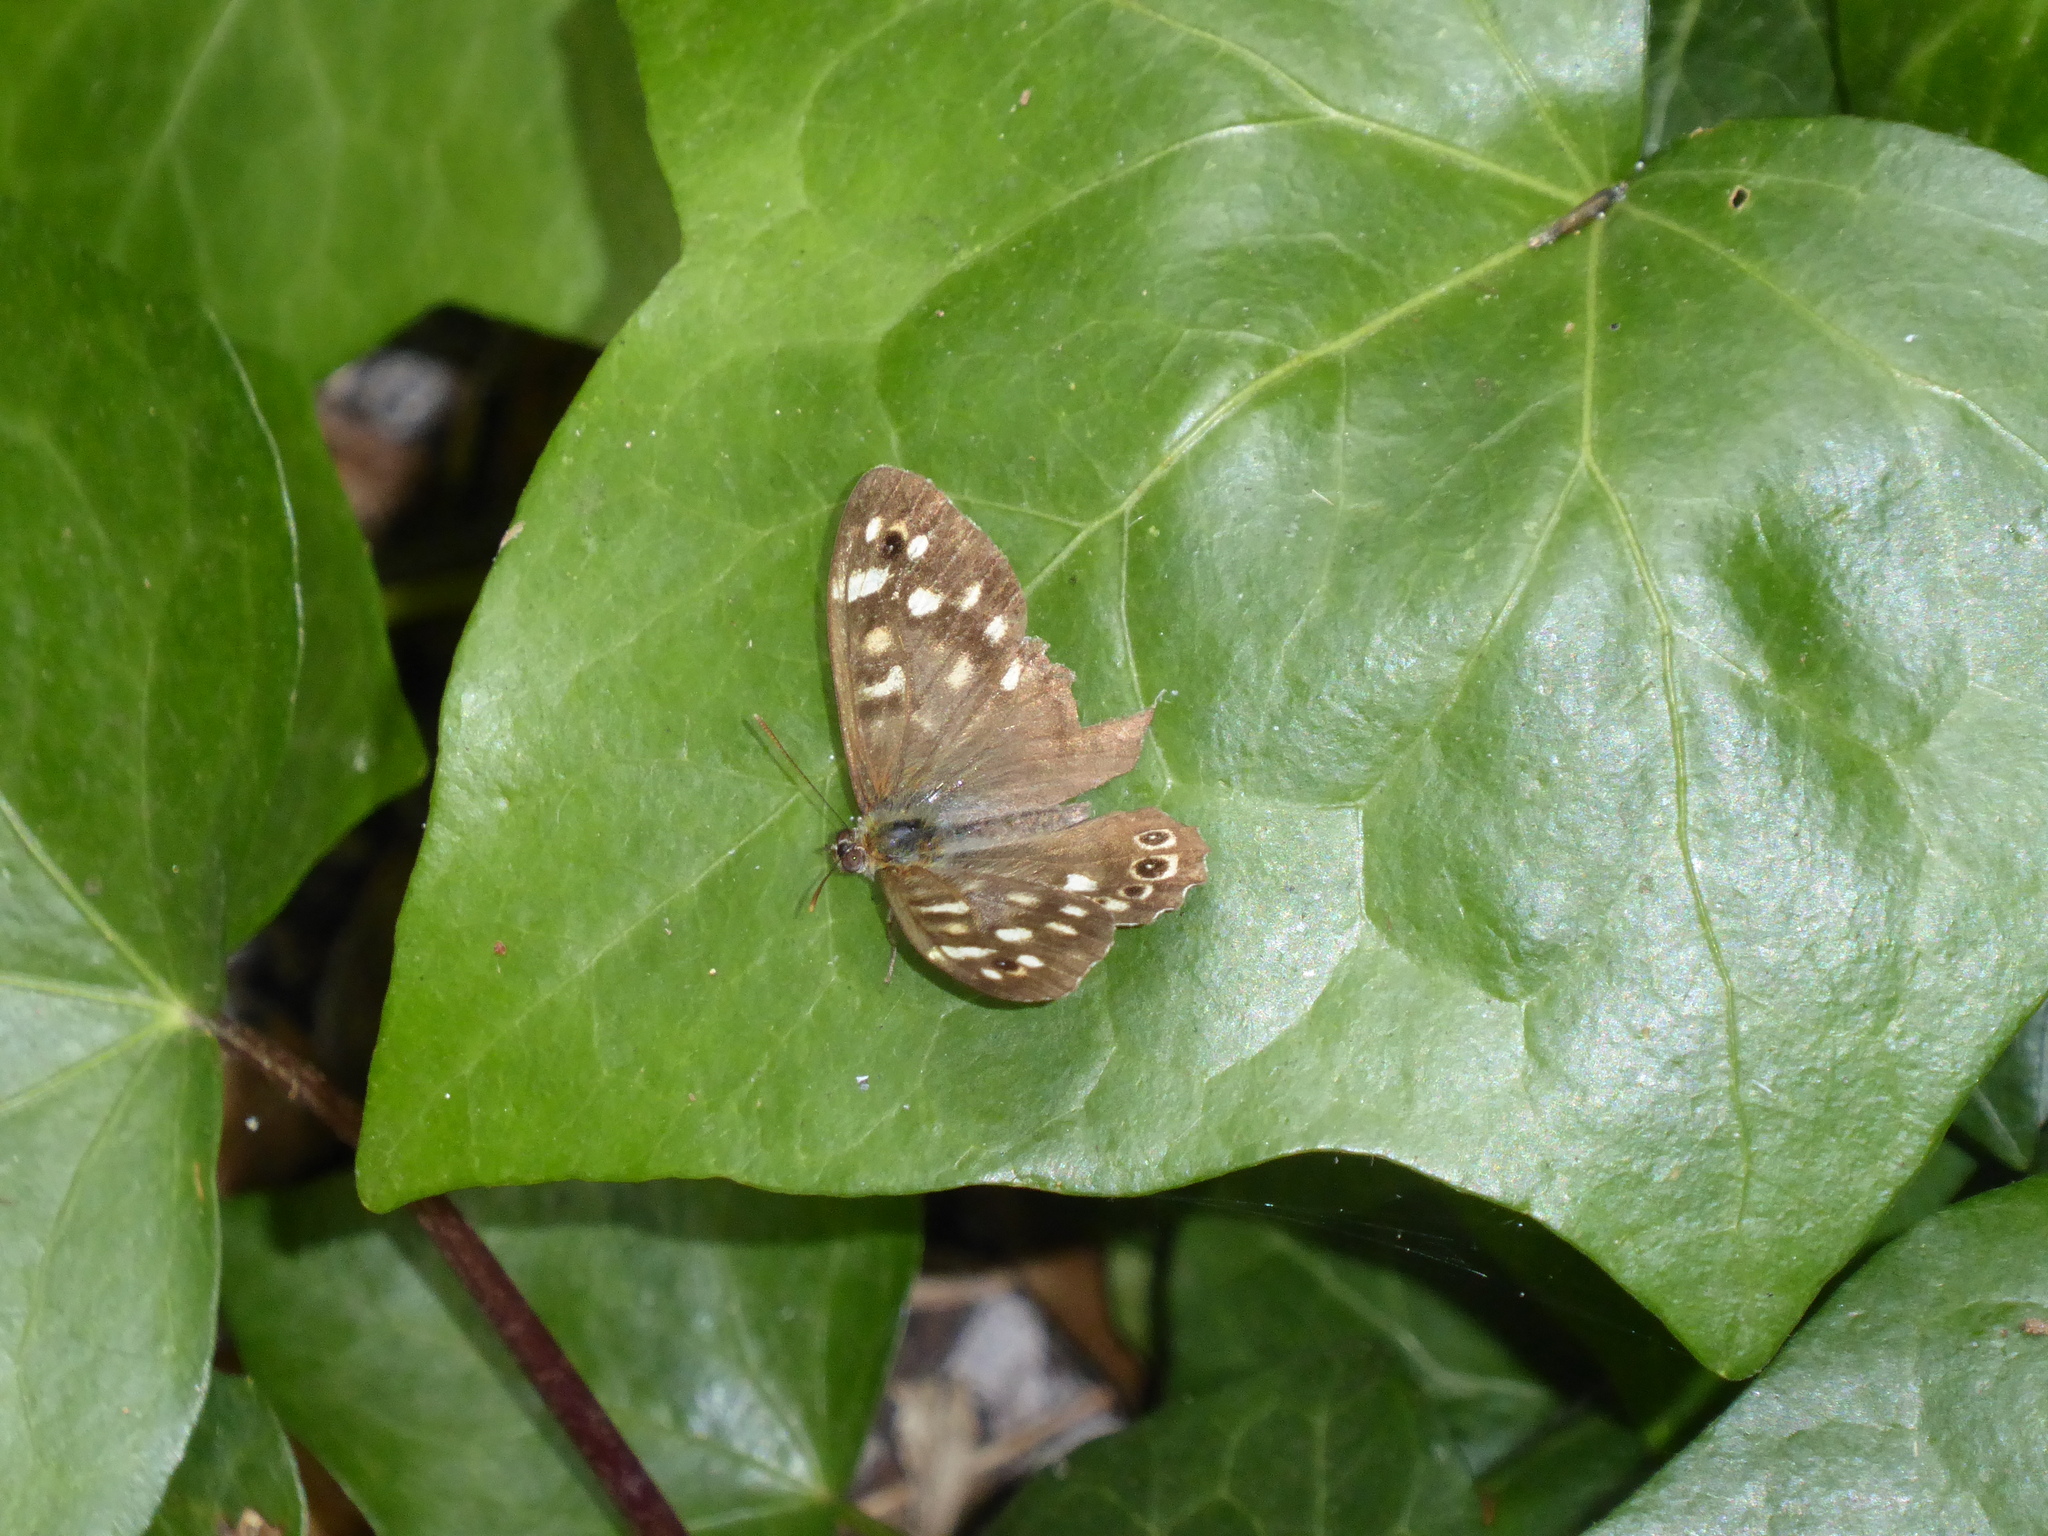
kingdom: Animalia
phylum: Arthropoda
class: Insecta
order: Lepidoptera
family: Nymphalidae
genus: Pararge
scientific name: Pararge aegeria
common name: Speckled wood
